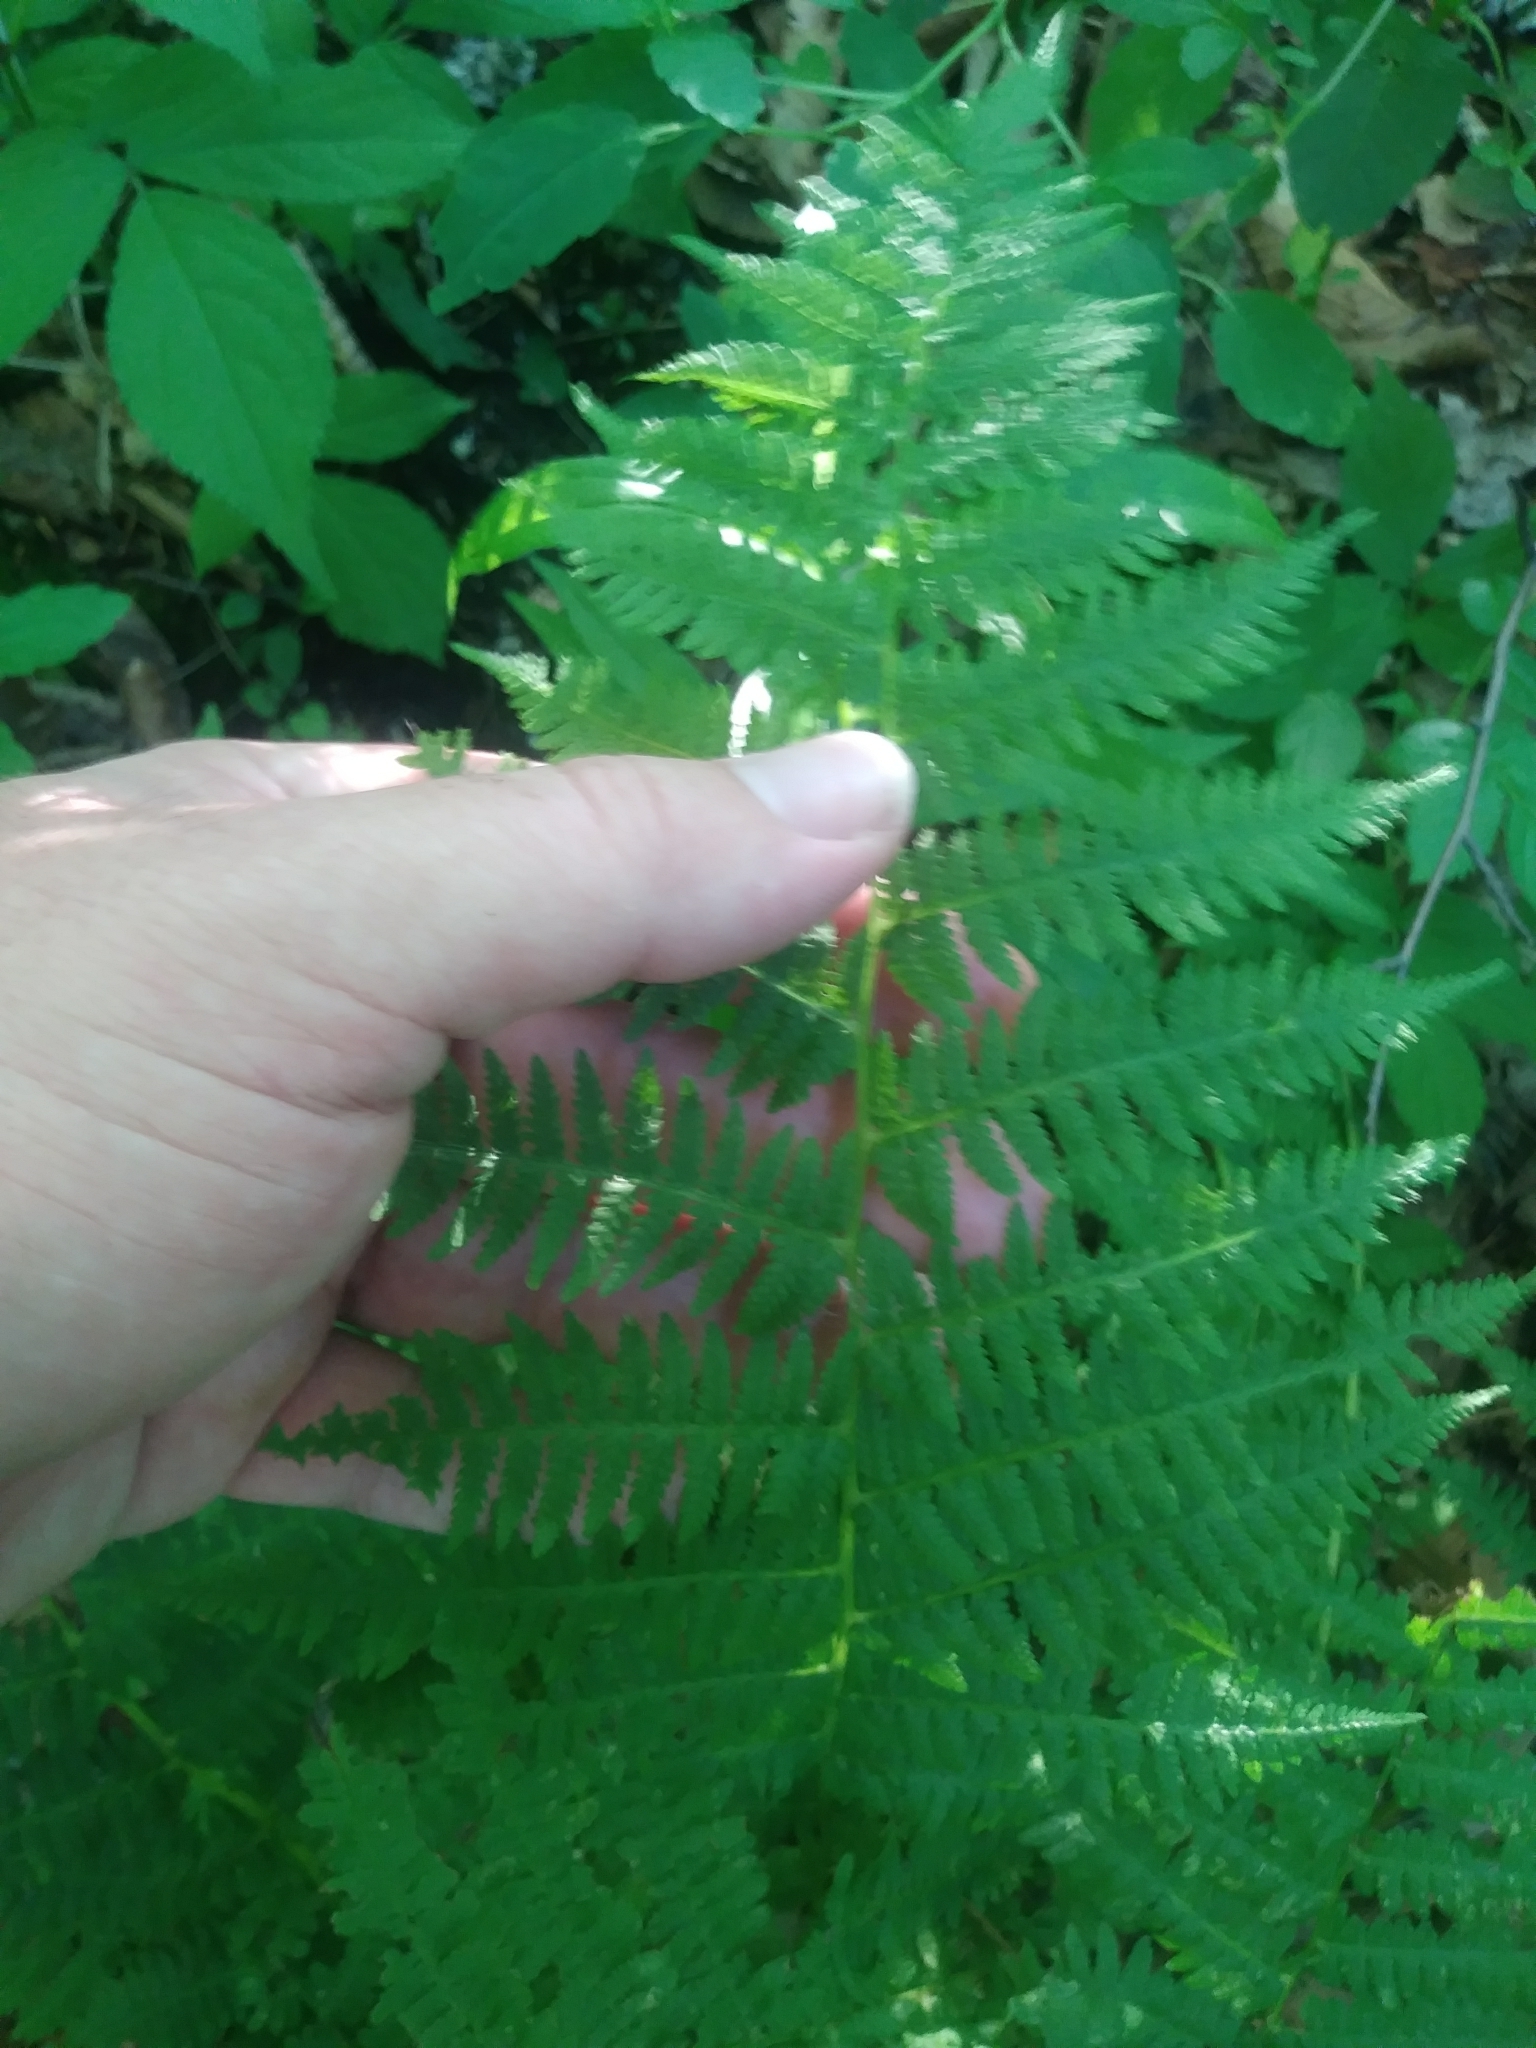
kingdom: Plantae
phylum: Tracheophyta
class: Polypodiopsida
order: Polypodiales
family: Athyriaceae
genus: Athyrium
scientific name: Athyrium angustum
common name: Northern lady fern
